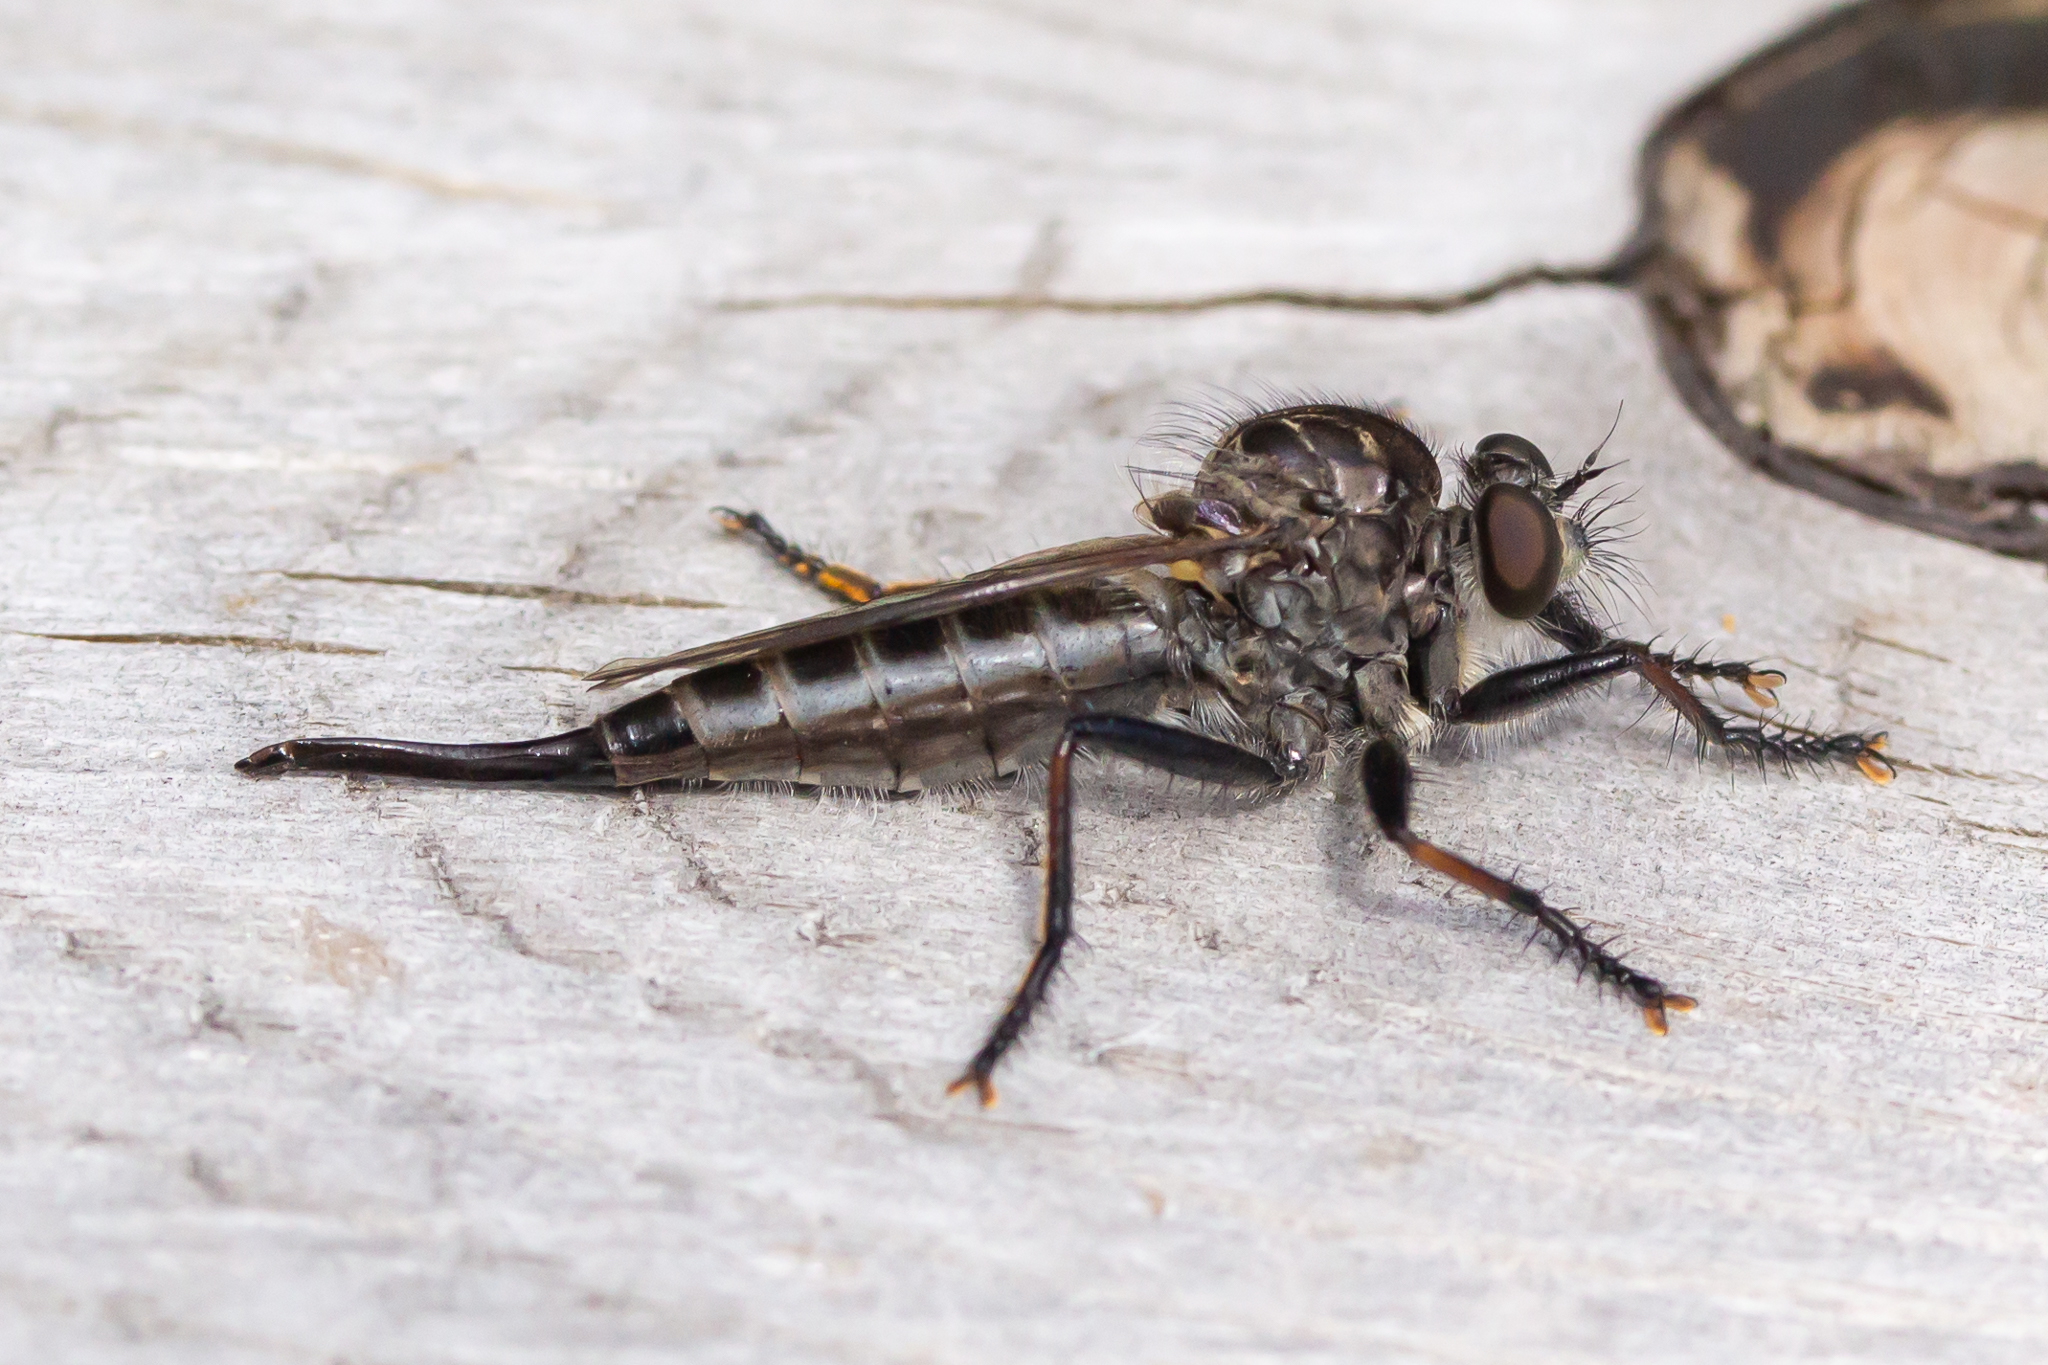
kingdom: Animalia
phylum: Arthropoda
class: Insecta
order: Diptera
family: Asilidae
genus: Efferia
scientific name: Efferia aestuans
